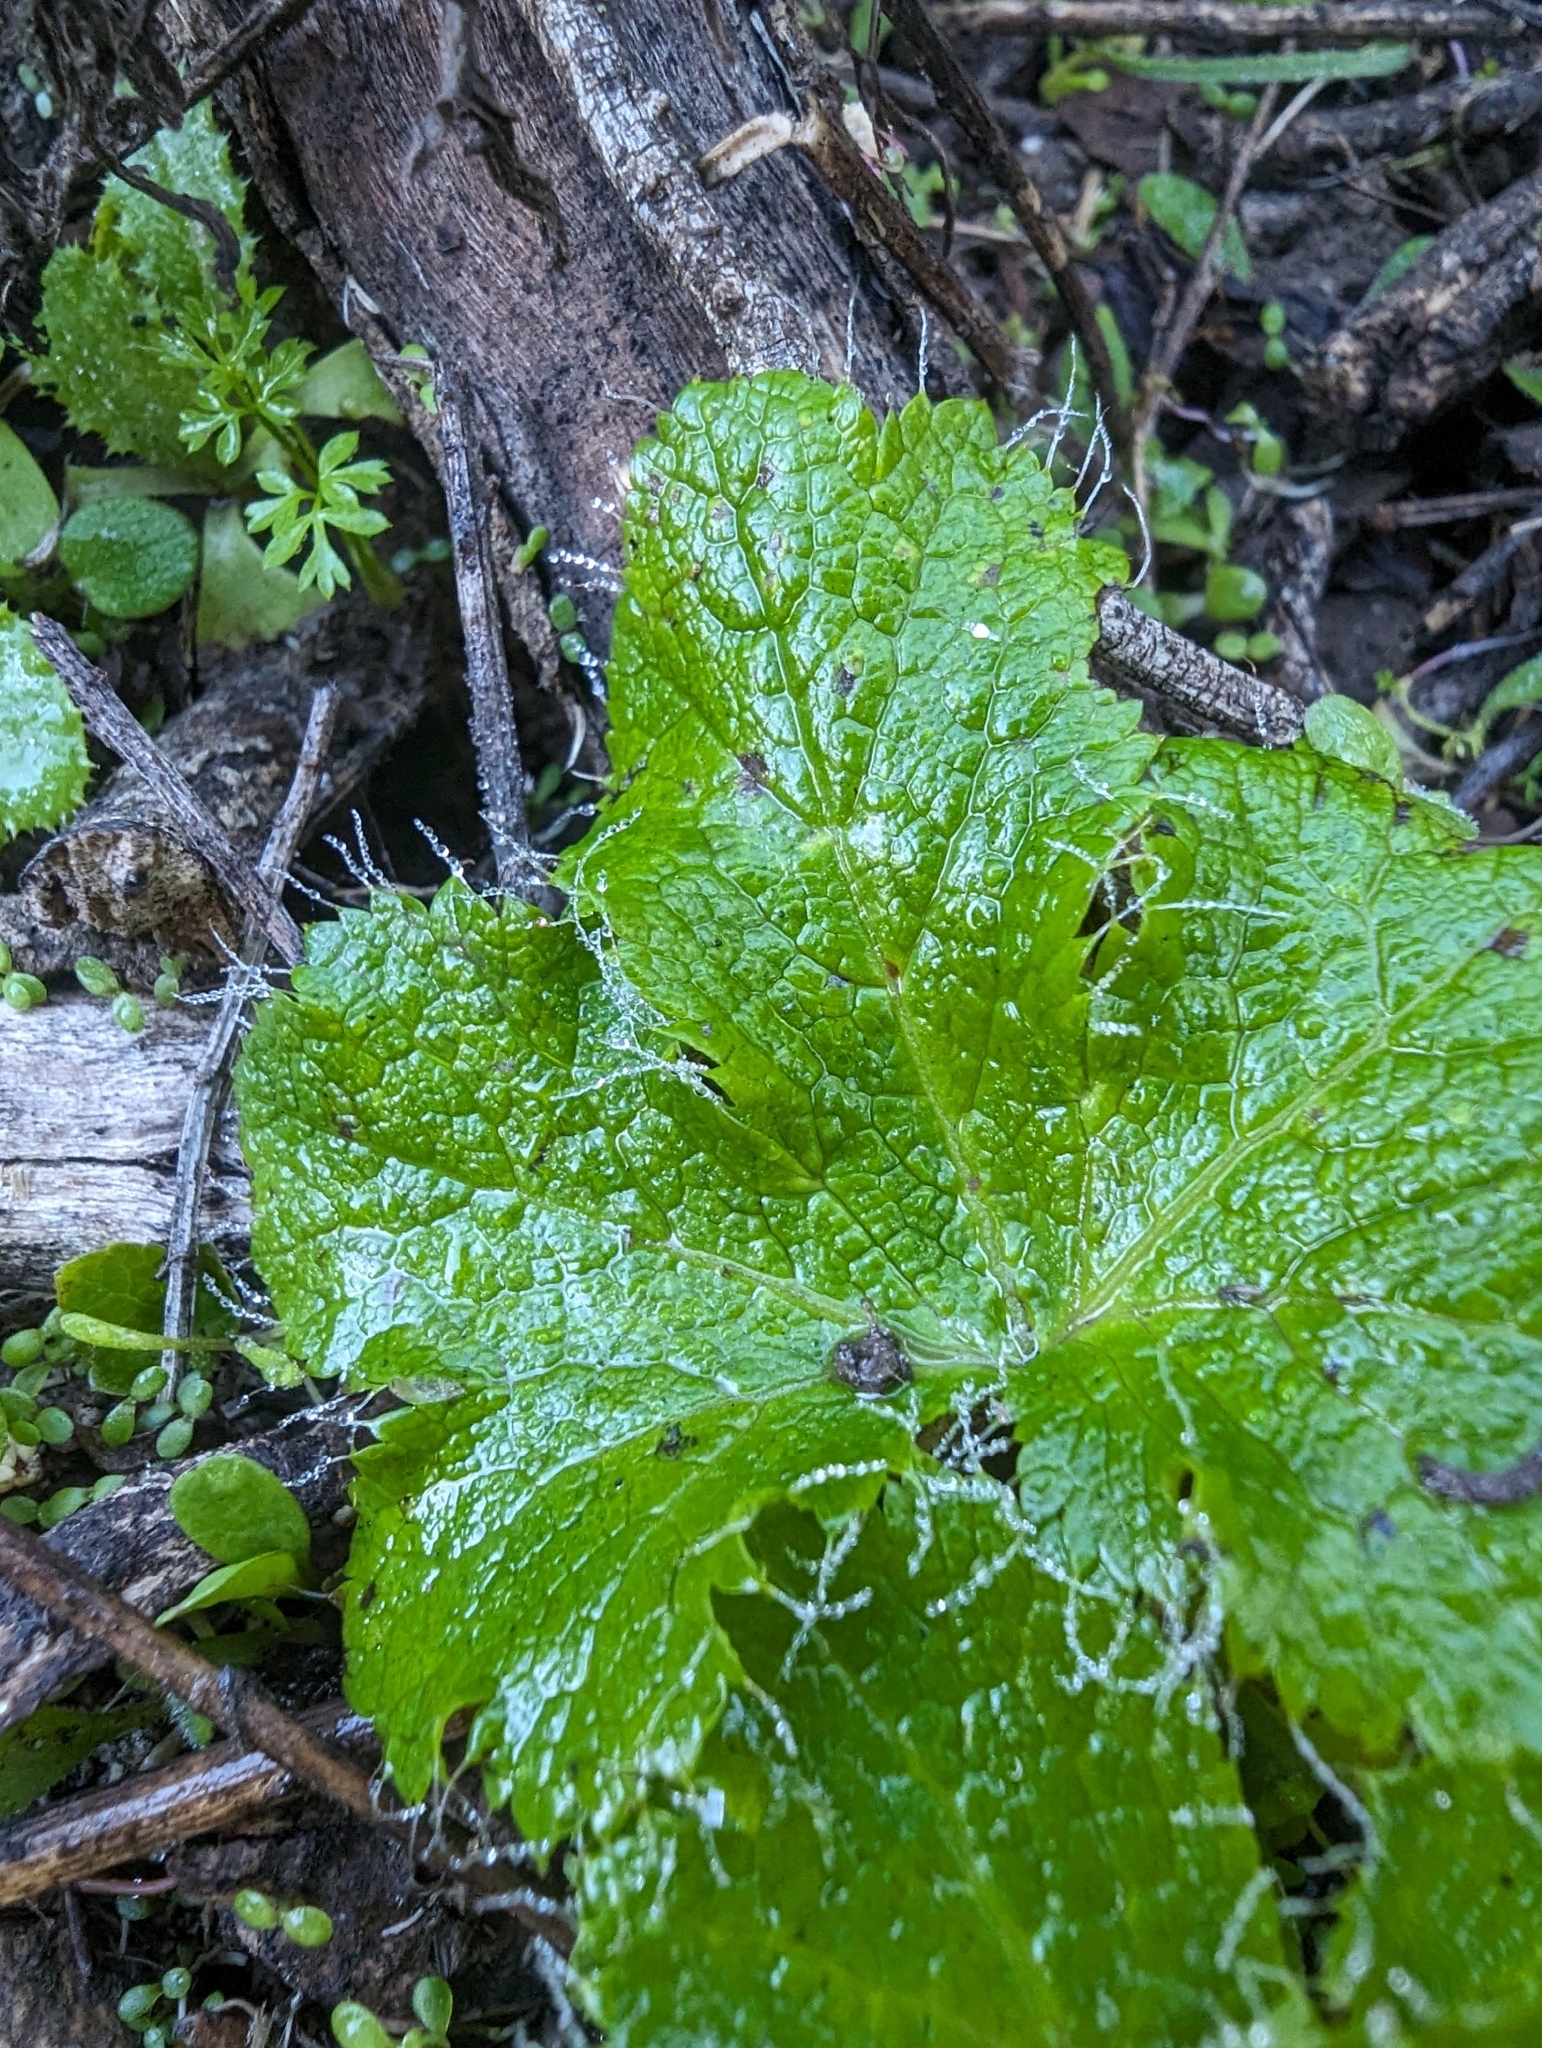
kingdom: Plantae
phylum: Tracheophyta
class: Magnoliopsida
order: Apiales
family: Apiaceae
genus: Sanicula
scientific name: Sanicula crassicaulis
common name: Western snakeroot
